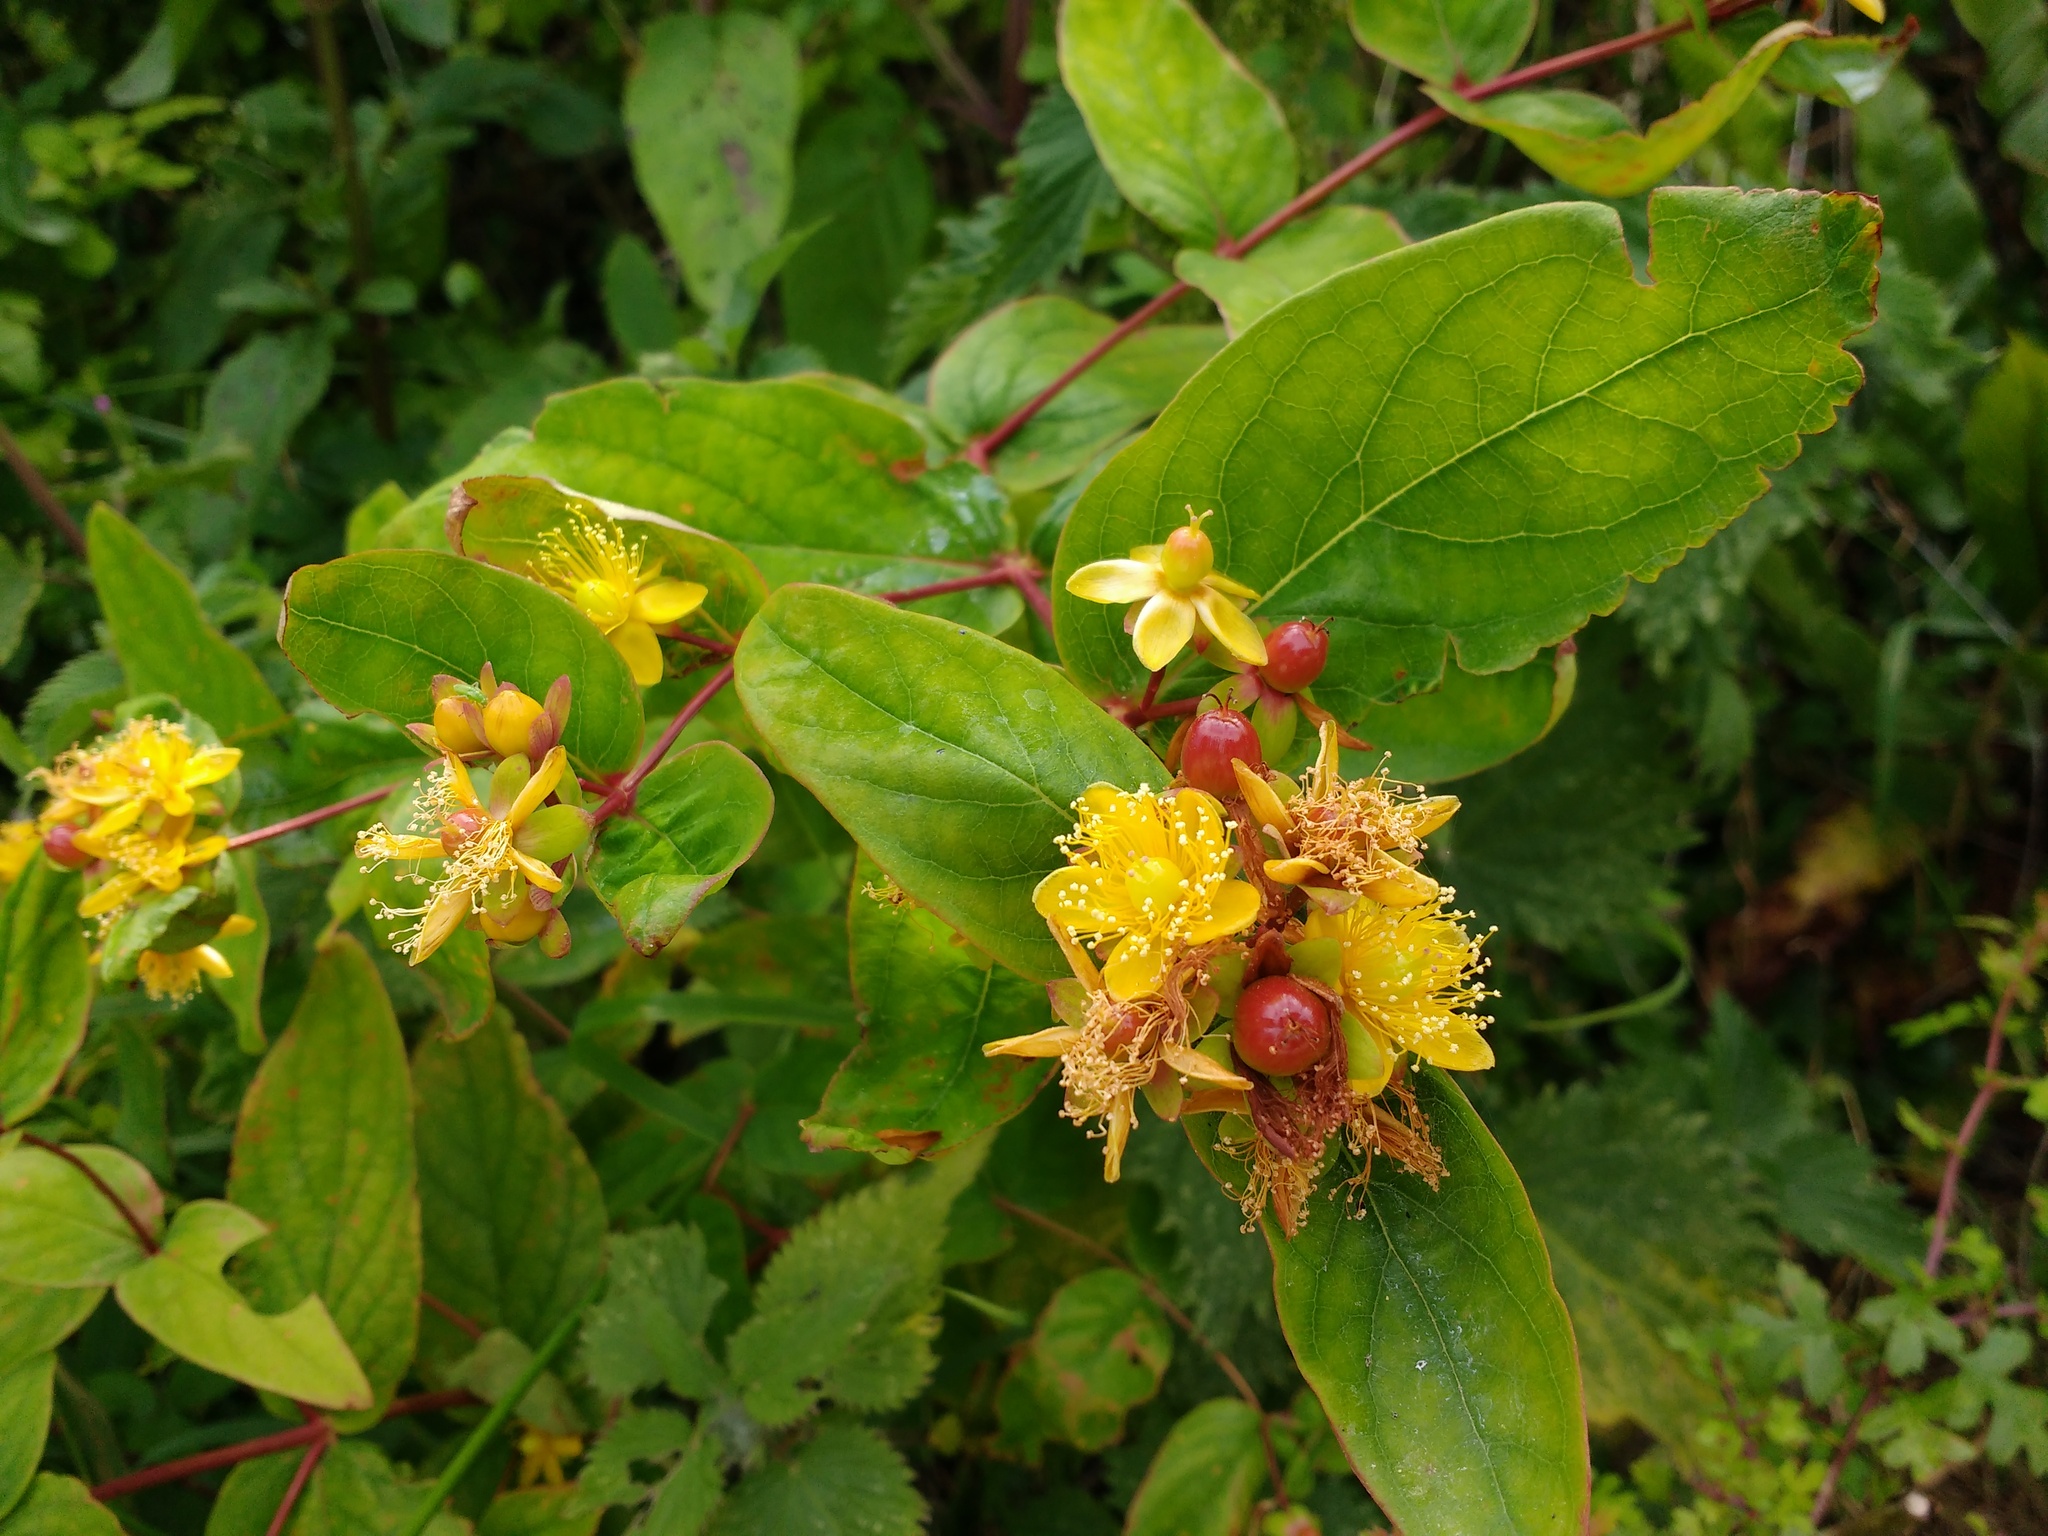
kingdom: Plantae
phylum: Tracheophyta
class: Magnoliopsida
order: Malpighiales
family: Hypericaceae
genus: Hypericum
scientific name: Hypericum androsaemum
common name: Sweet-amber
